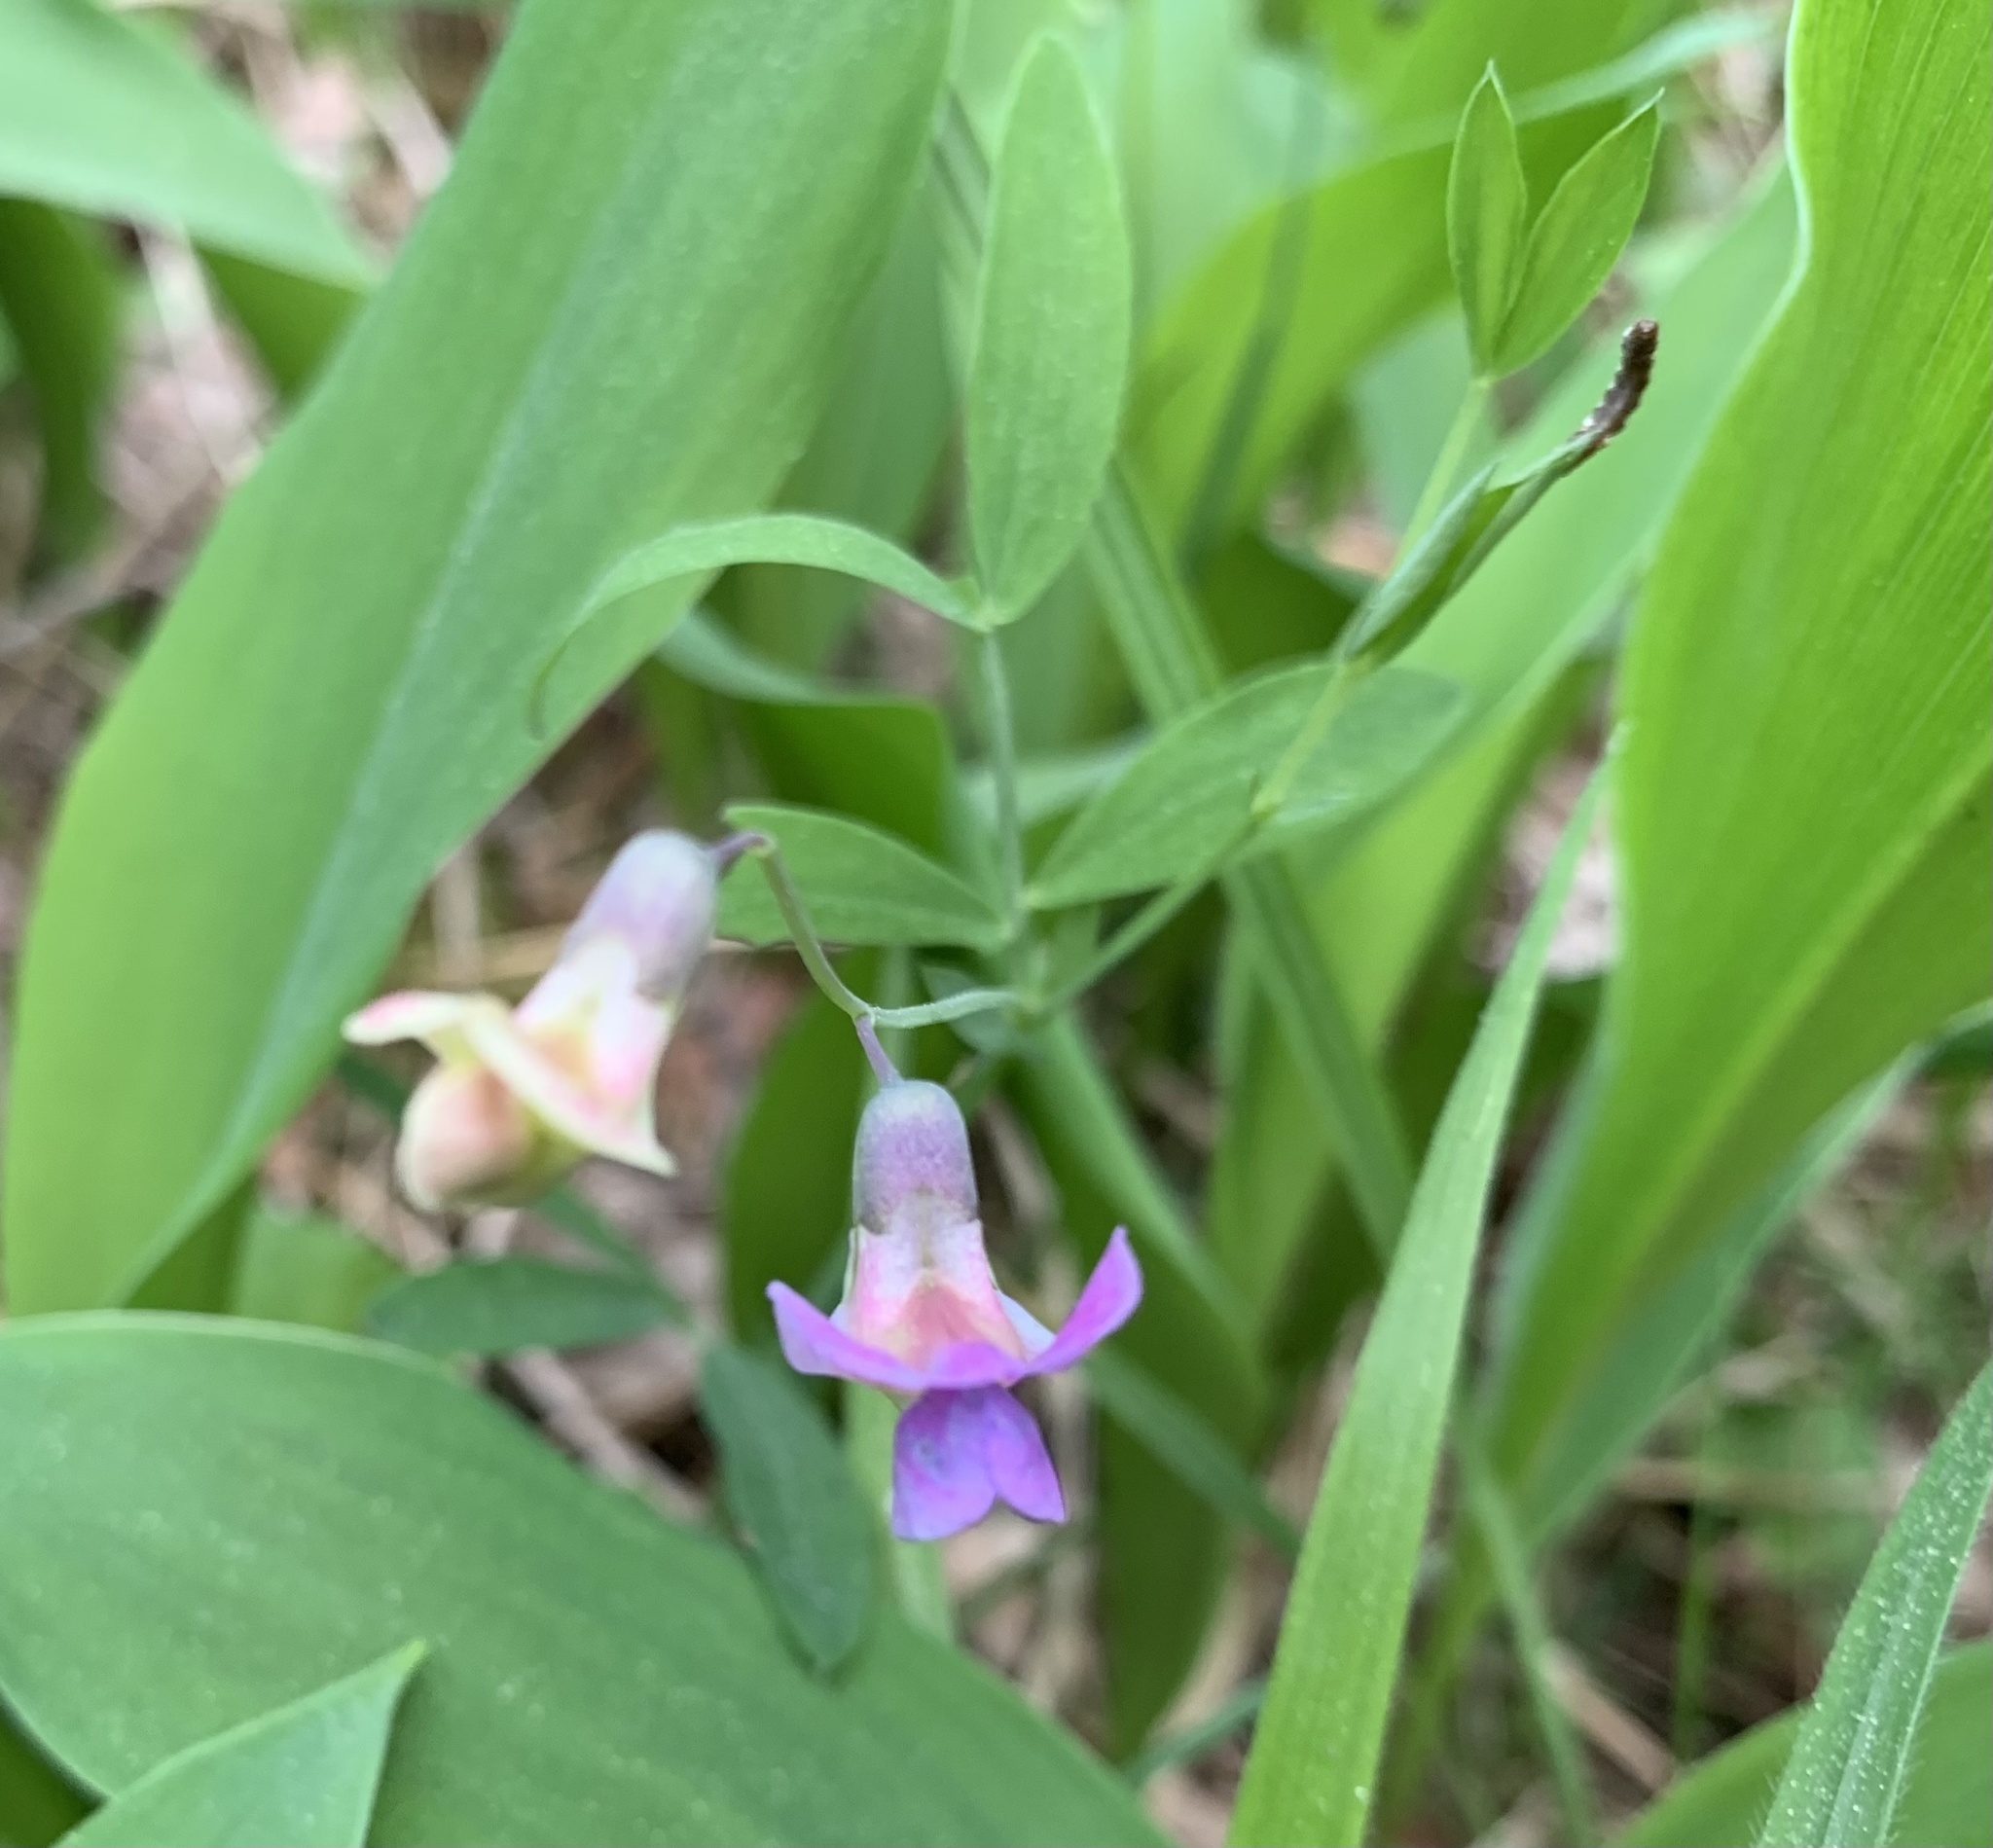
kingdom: Plantae
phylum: Tracheophyta
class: Magnoliopsida
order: Fabales
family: Fabaceae
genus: Lathyrus
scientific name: Lathyrus linifolius
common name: Bitter-vetch
